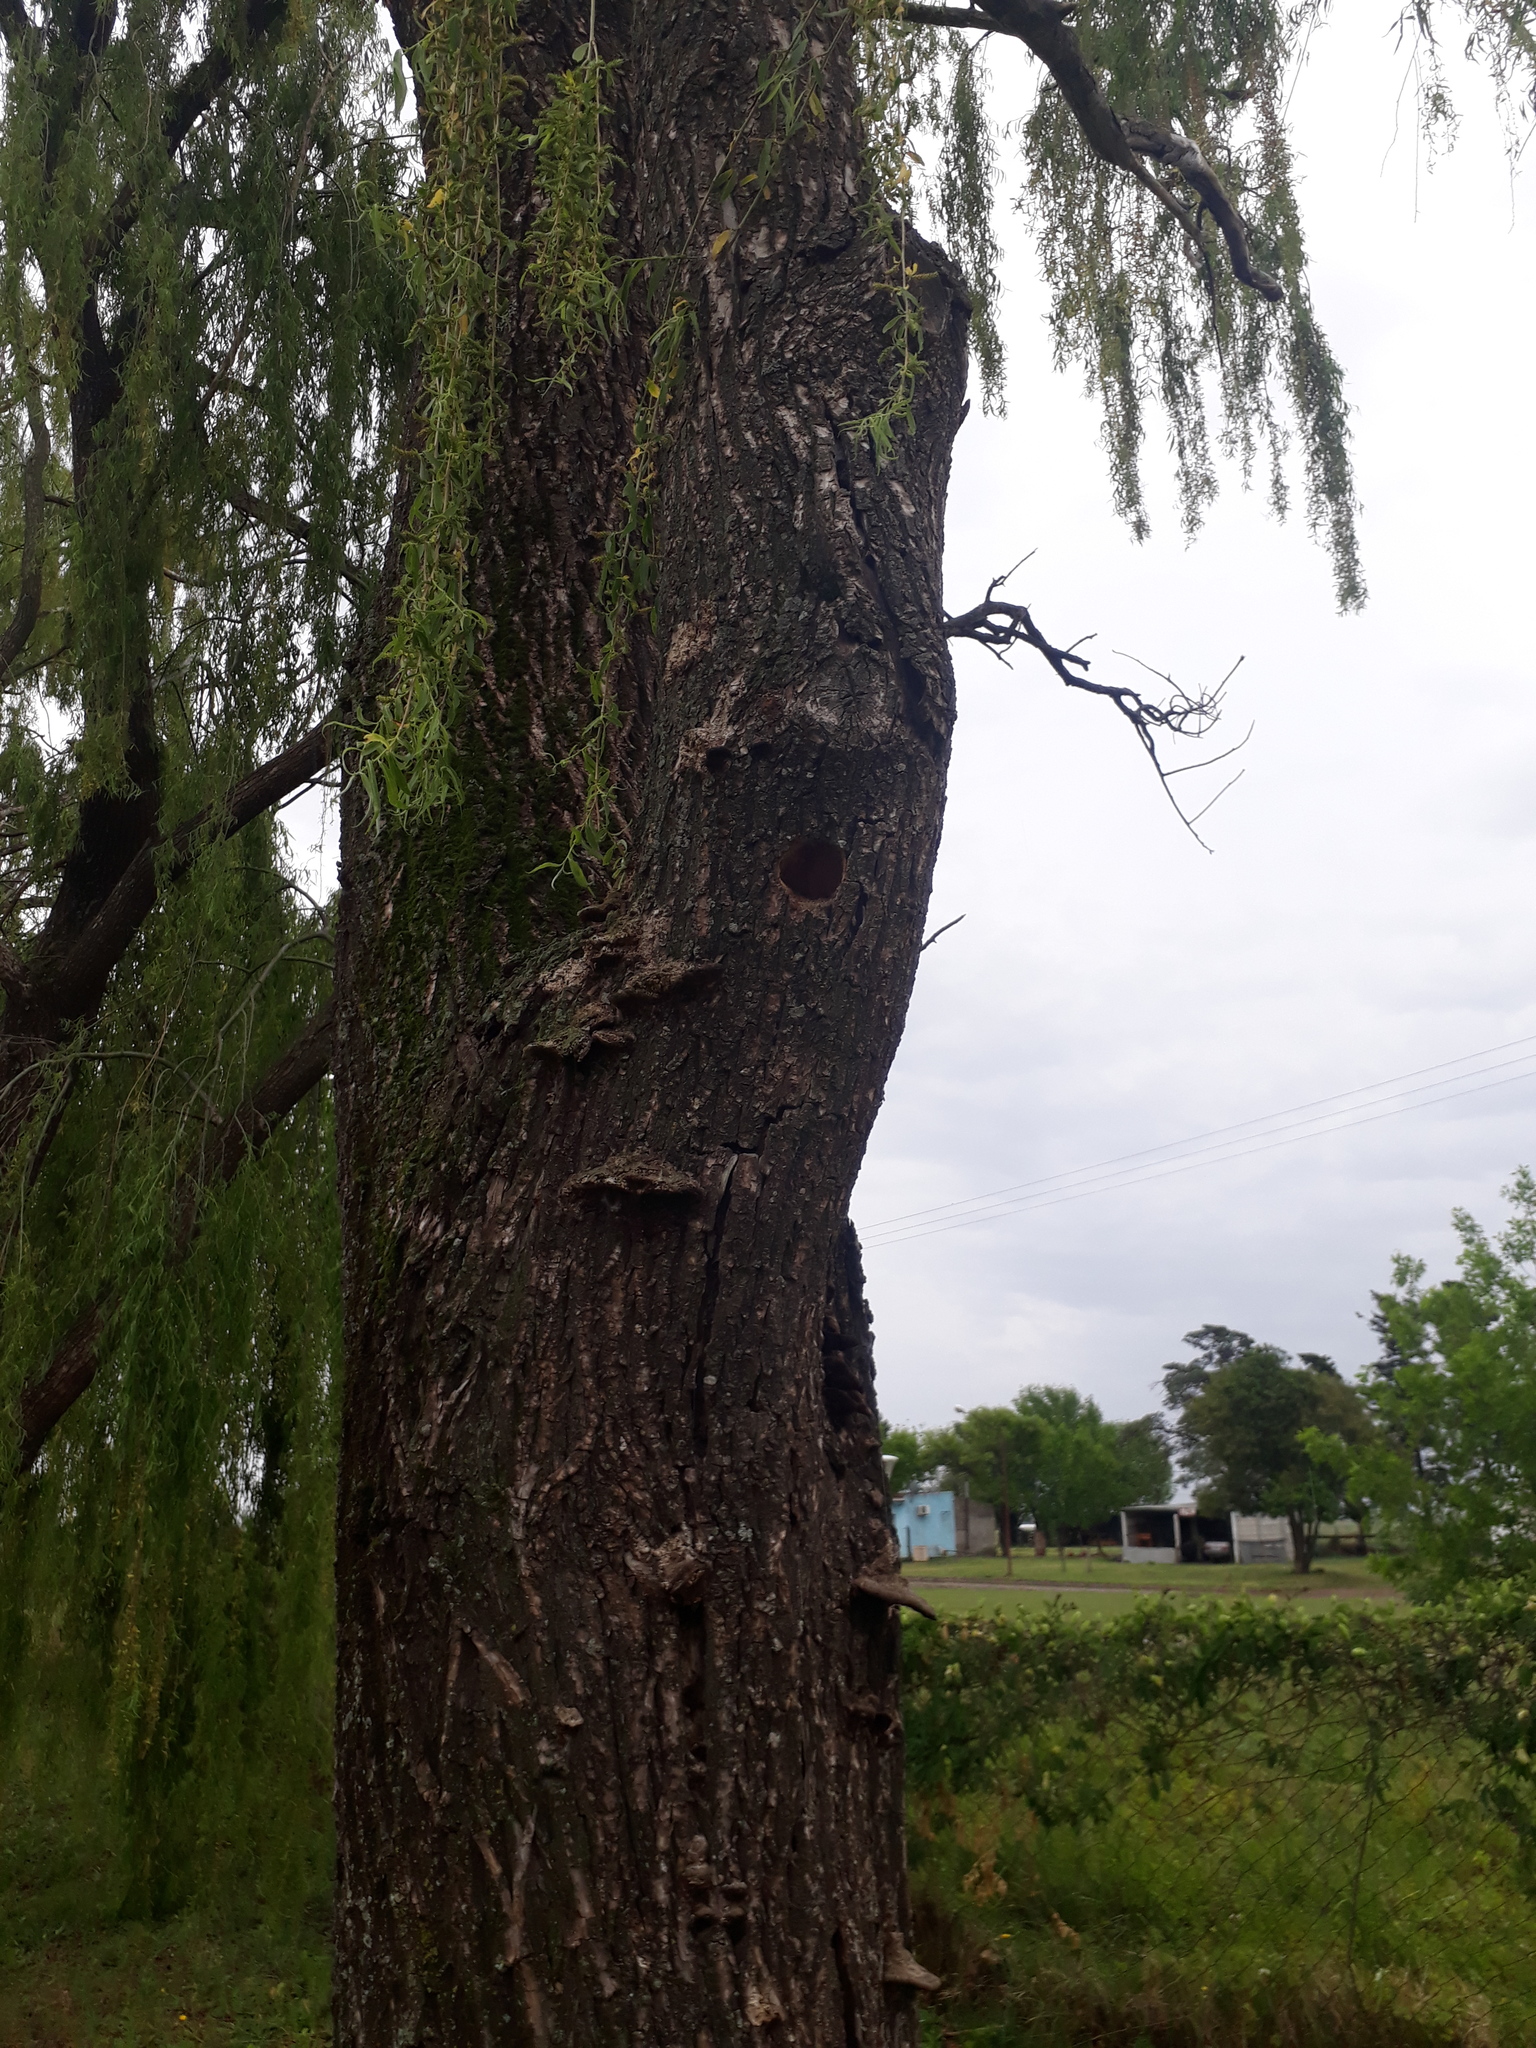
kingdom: Plantae
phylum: Tracheophyta
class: Magnoliopsida
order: Malpighiales
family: Salicaceae
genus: Salix
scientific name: Salix babylonica
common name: Weeping willow
